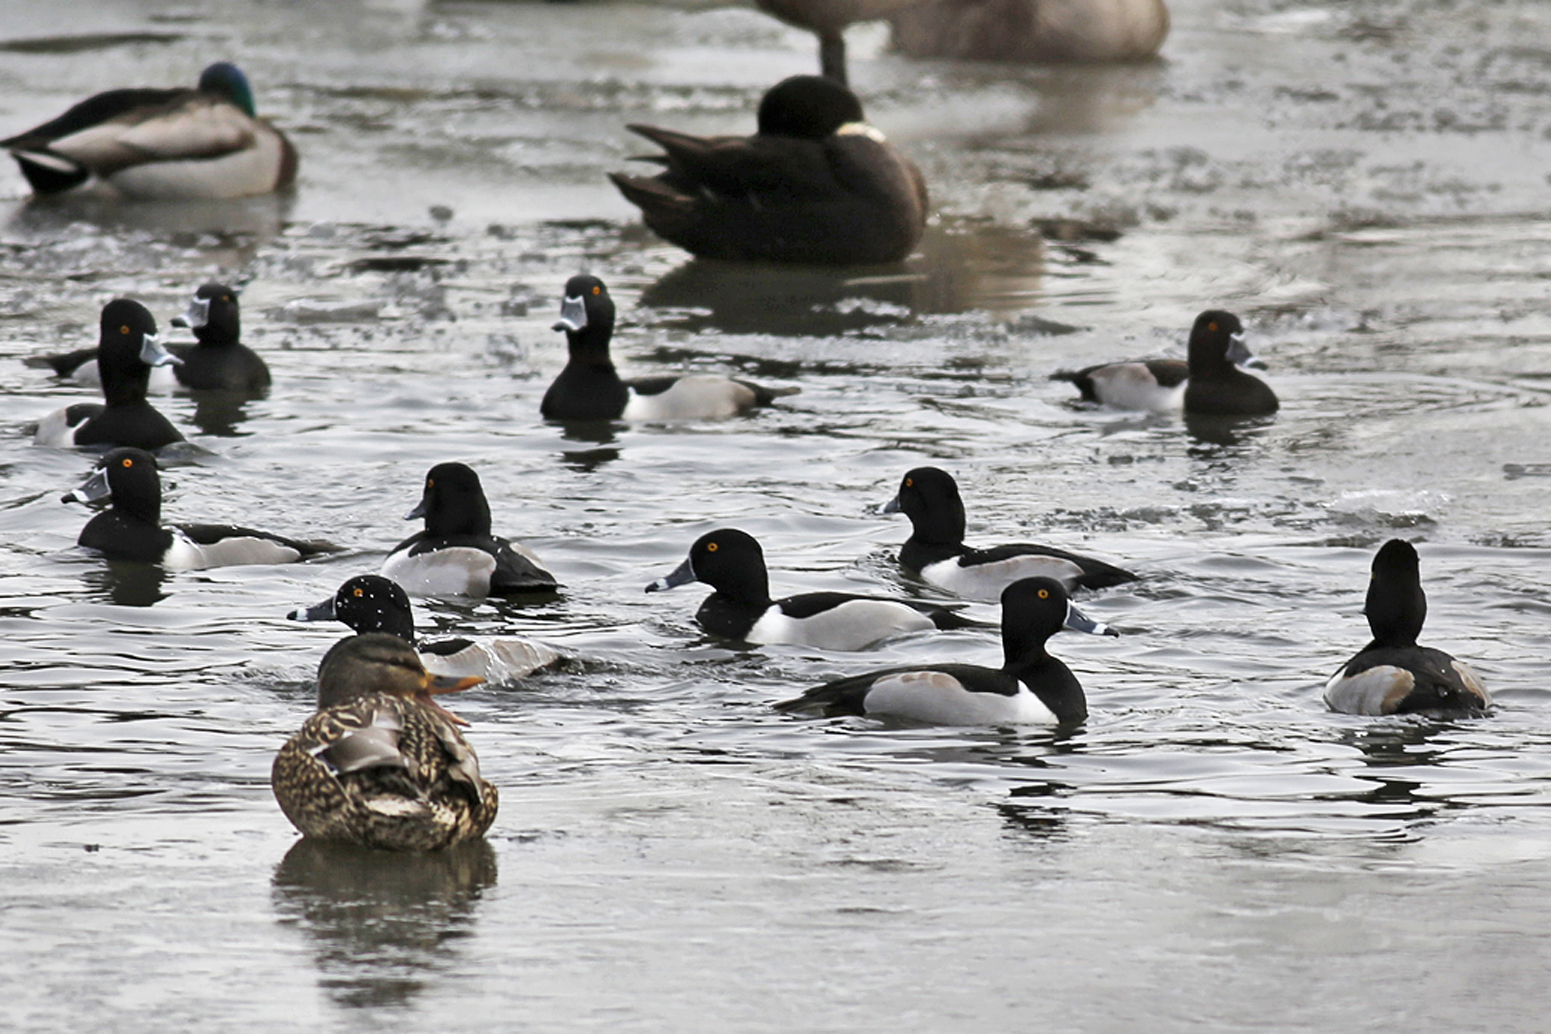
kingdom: Animalia
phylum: Chordata
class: Aves
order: Anseriformes
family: Anatidae
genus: Aythya
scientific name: Aythya collaris
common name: Ring-necked duck
